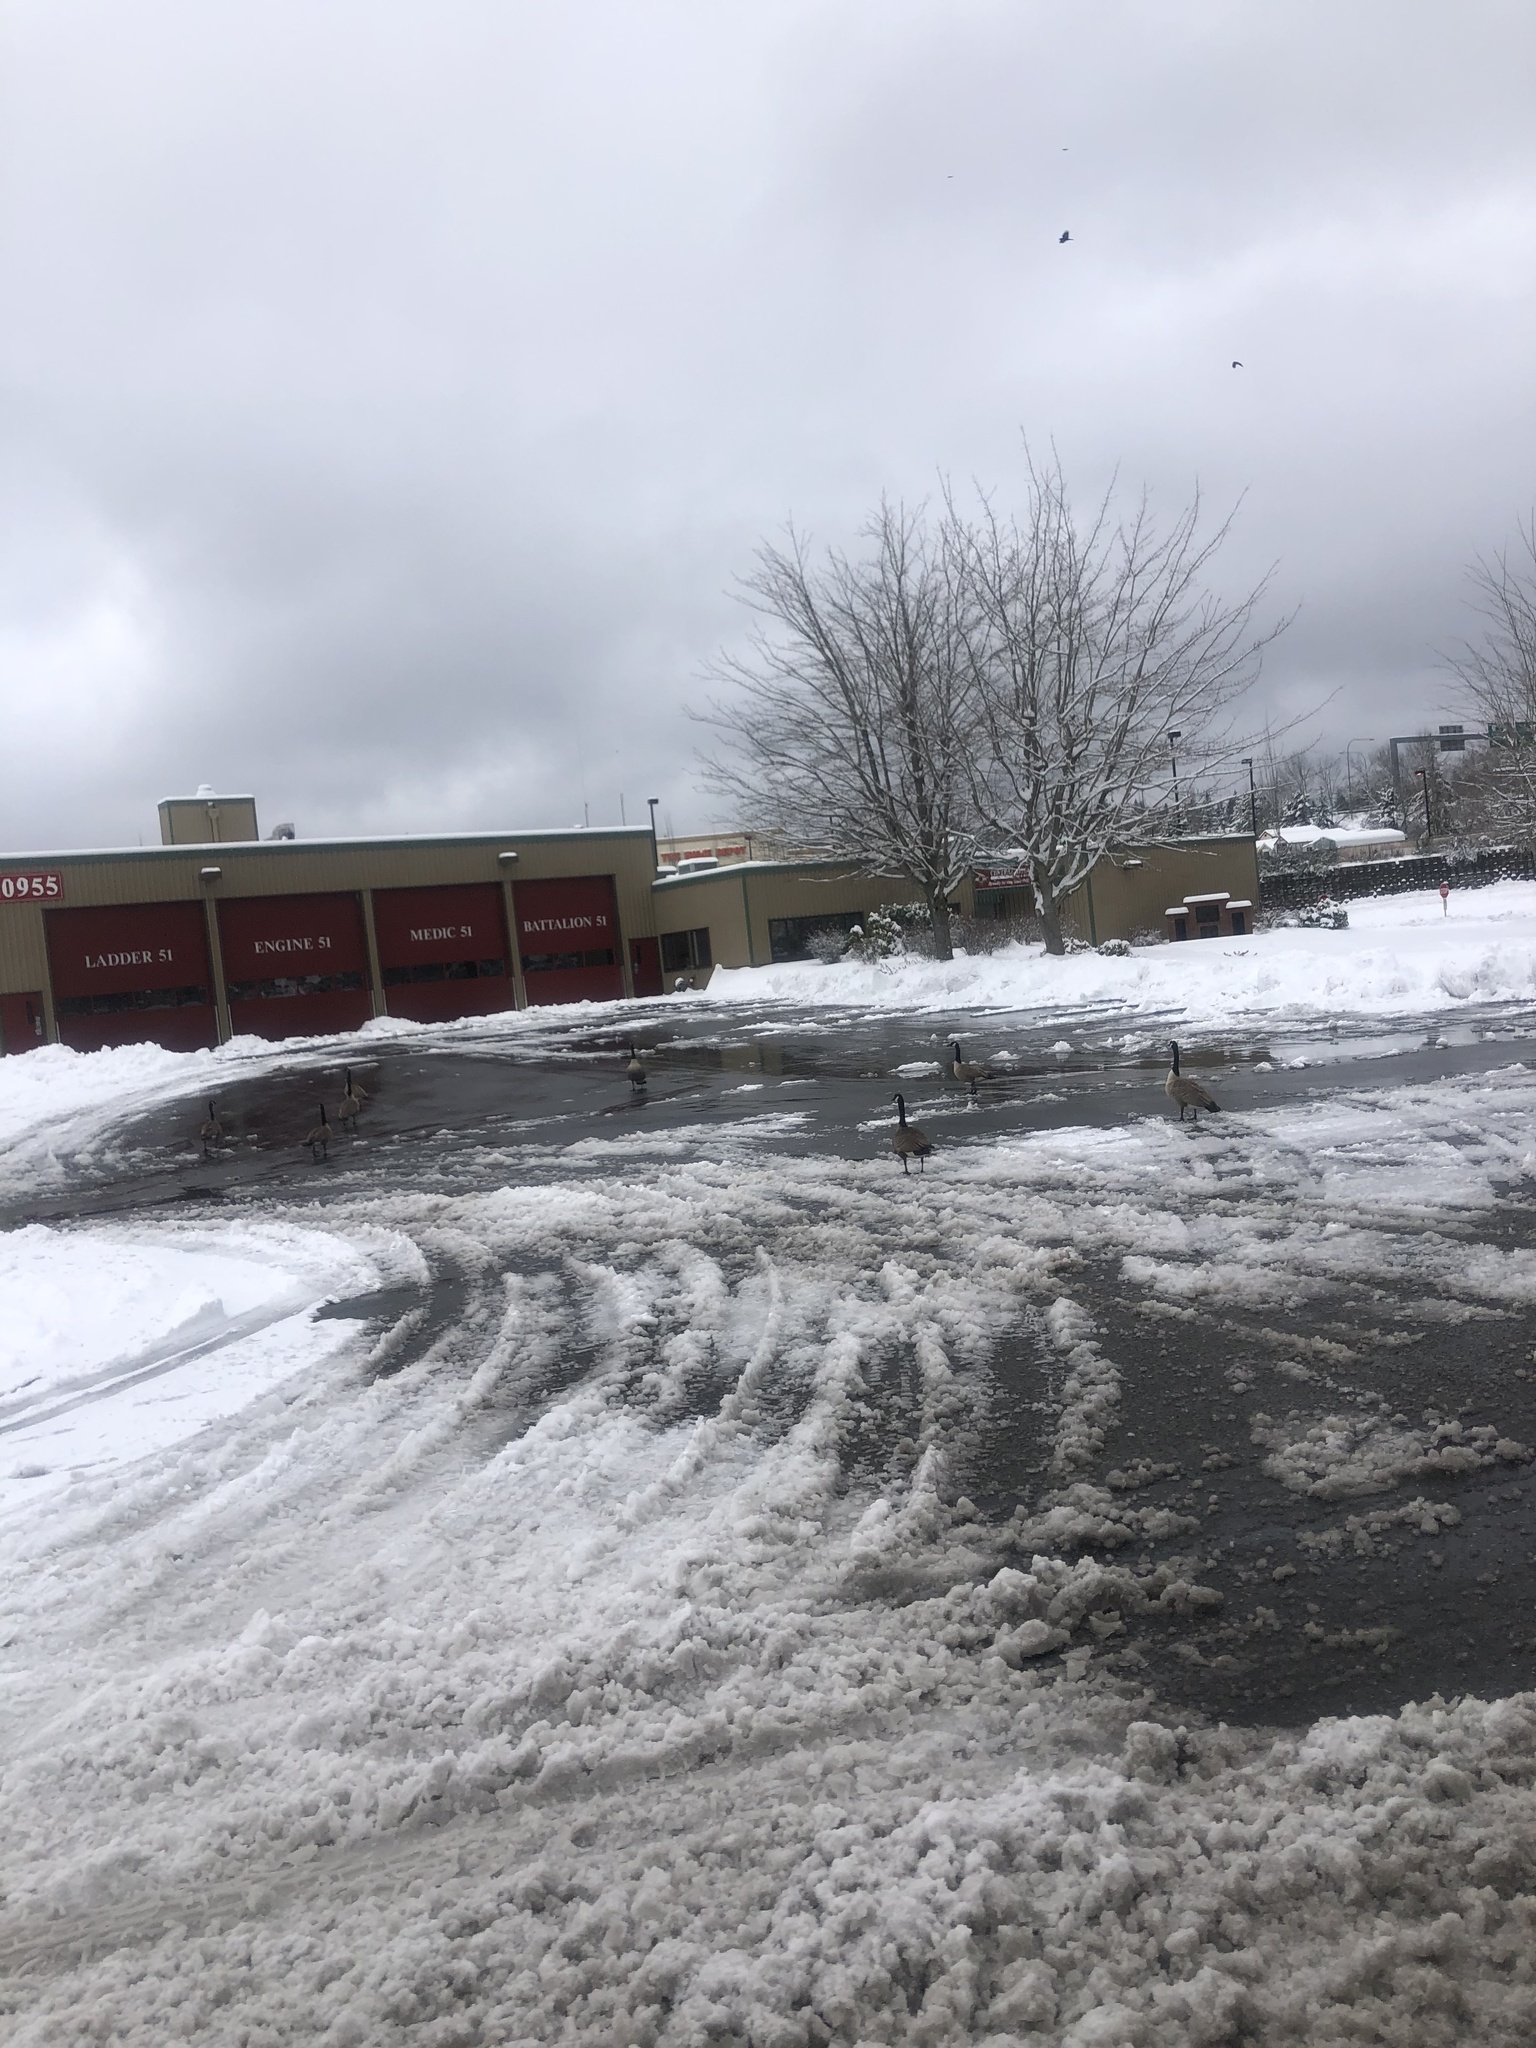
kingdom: Animalia
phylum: Chordata
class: Aves
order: Anseriformes
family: Anatidae
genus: Branta
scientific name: Branta canadensis
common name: Canada goose
